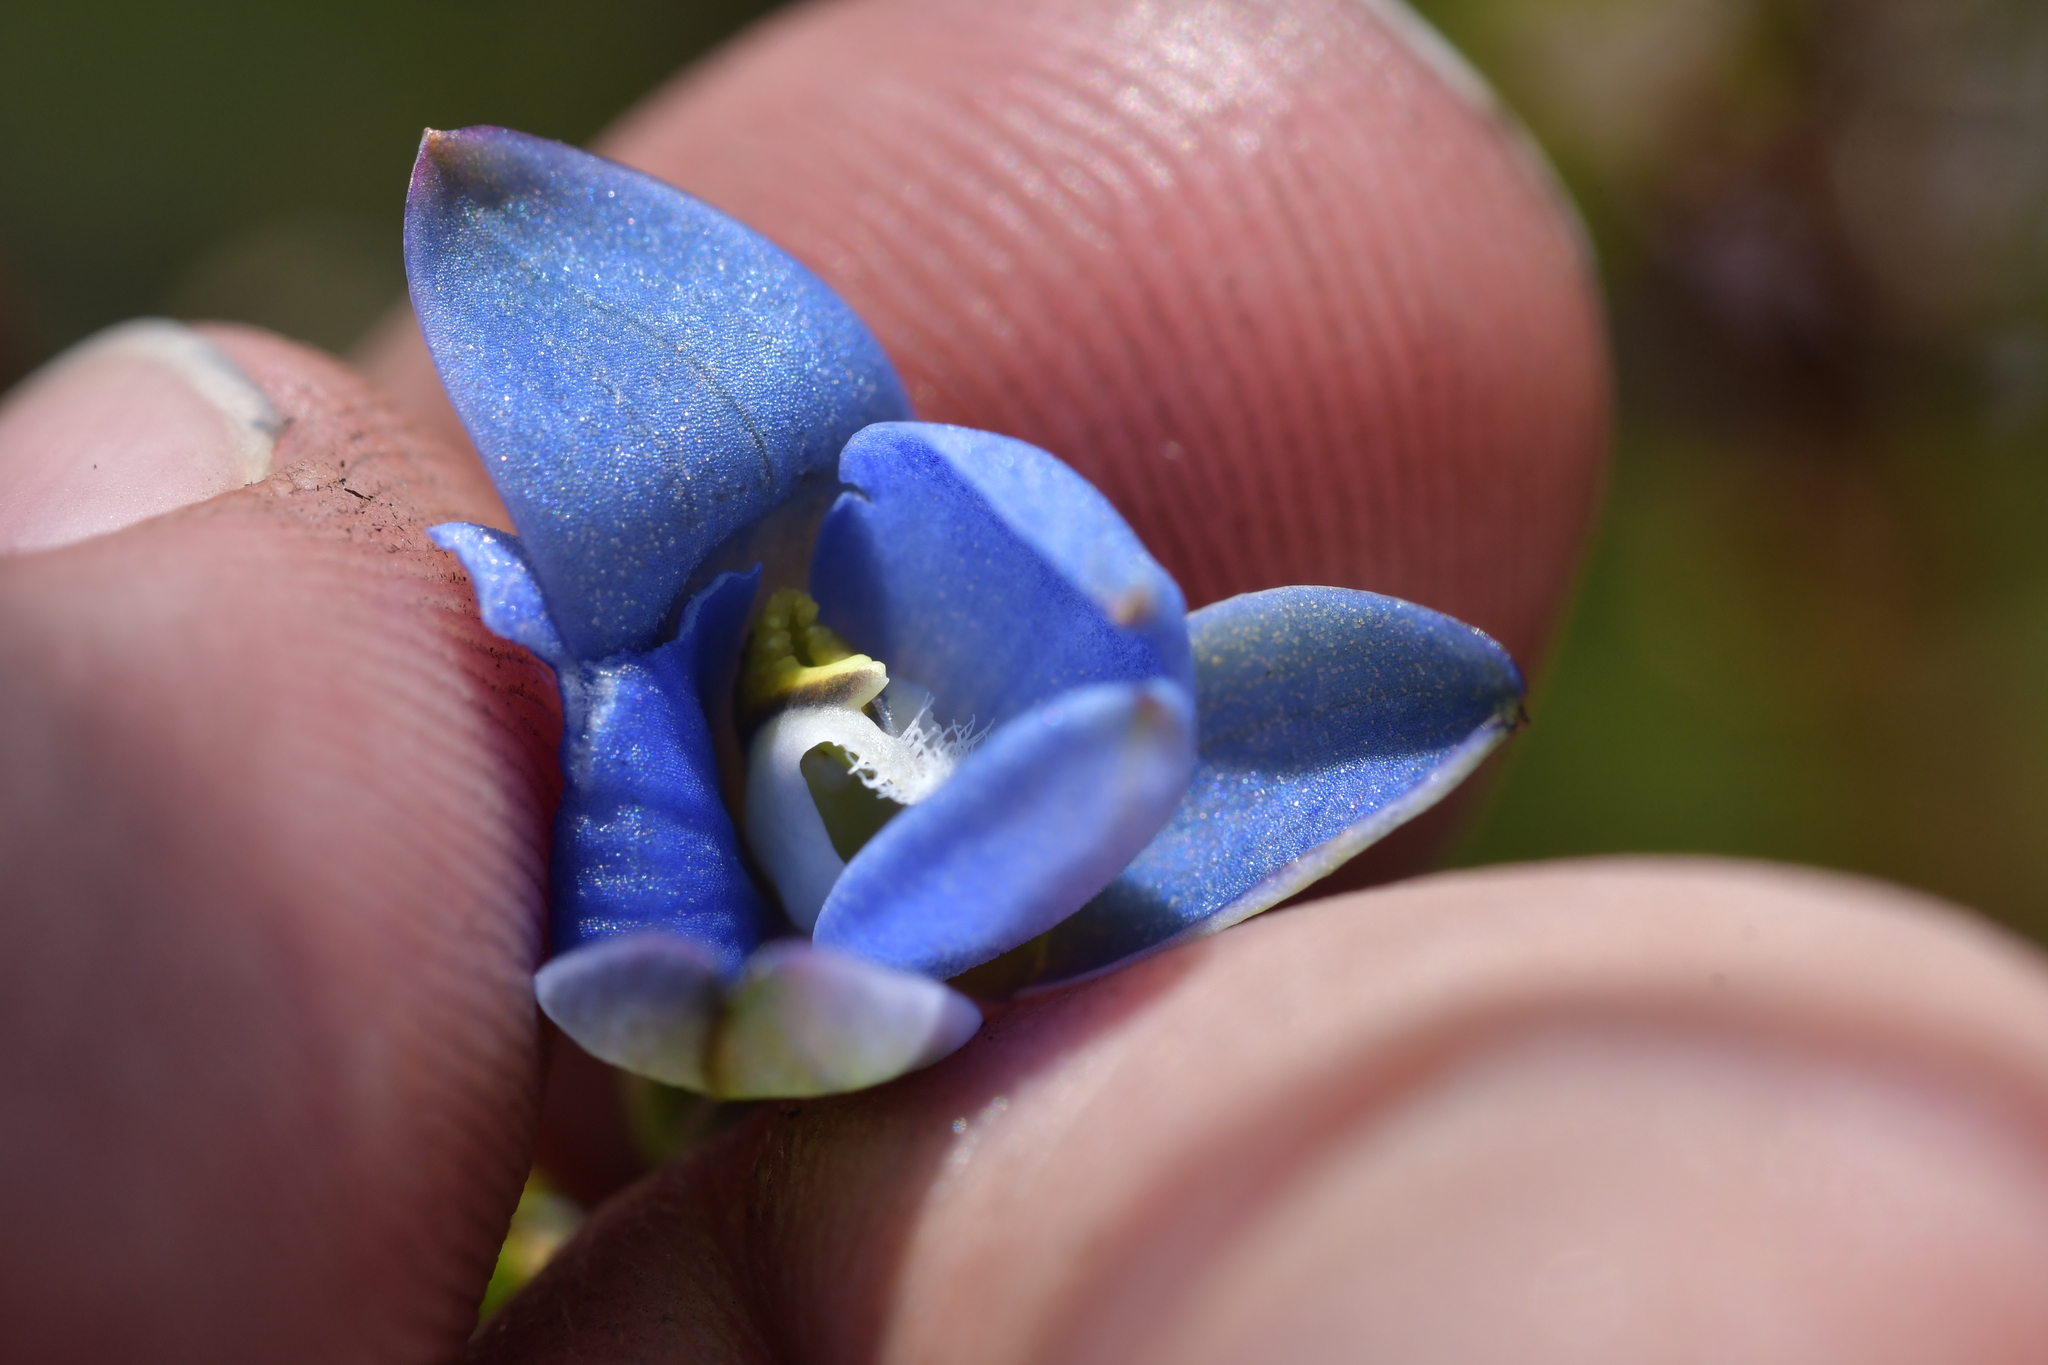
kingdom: Plantae
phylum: Tracheophyta
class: Liliopsida
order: Asparagales
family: Orchidaceae
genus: Thelymitra
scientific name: Thelymitra aemula
